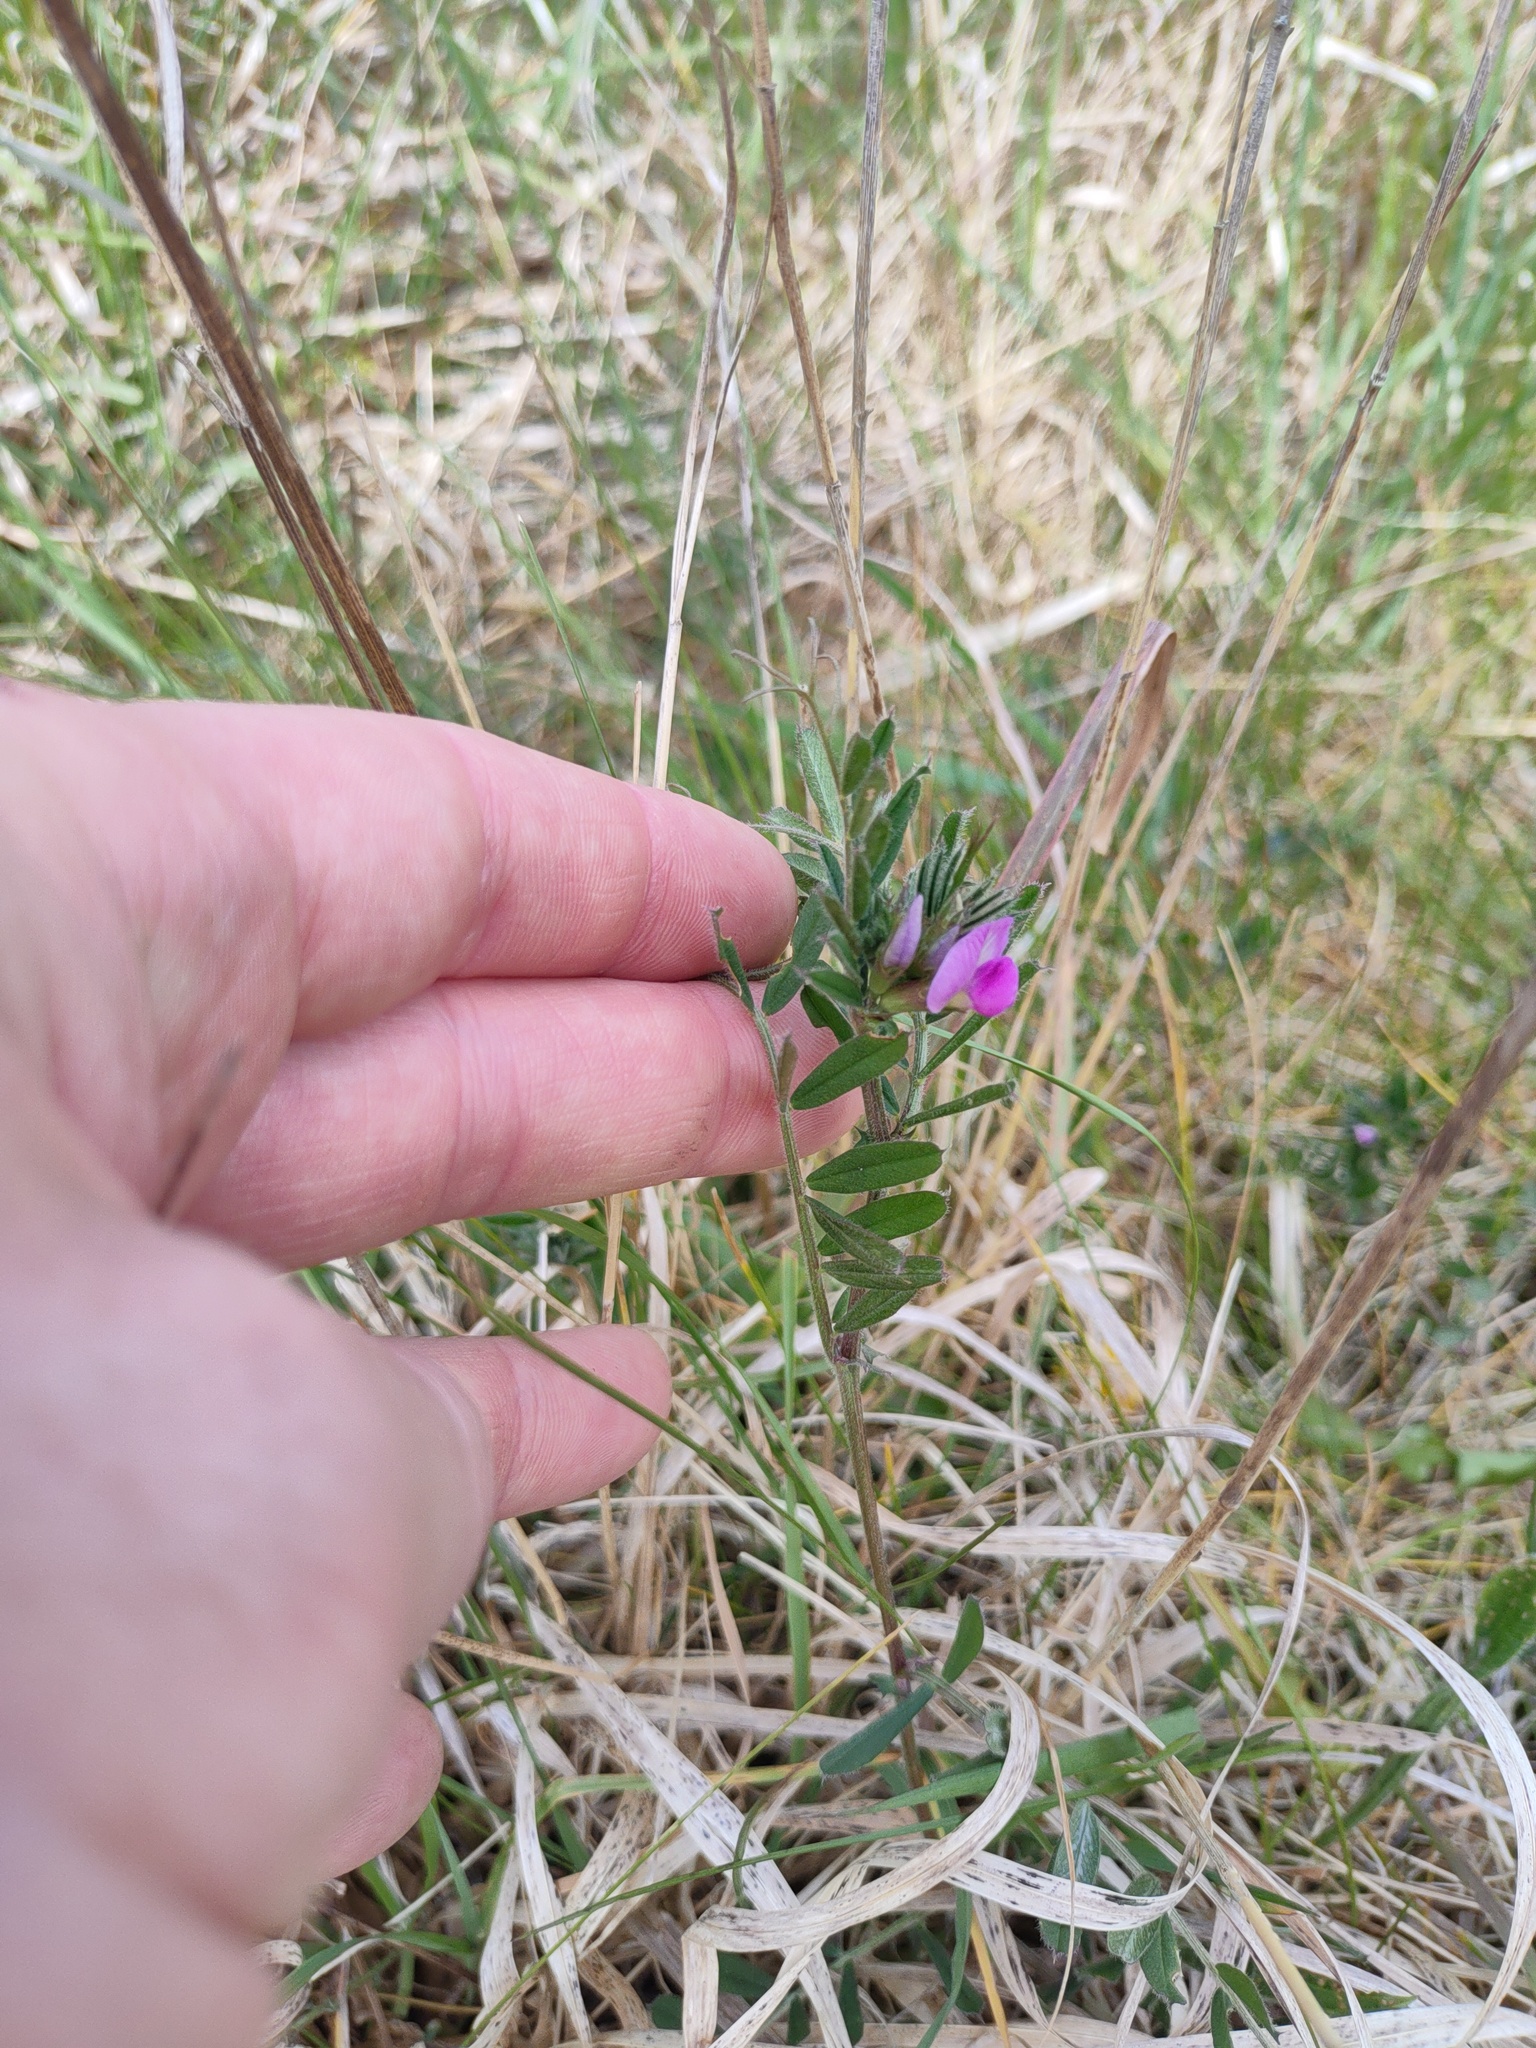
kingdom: Plantae
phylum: Tracheophyta
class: Magnoliopsida
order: Fabales
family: Fabaceae
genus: Vicia
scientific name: Vicia sativa
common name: Garden vetch
